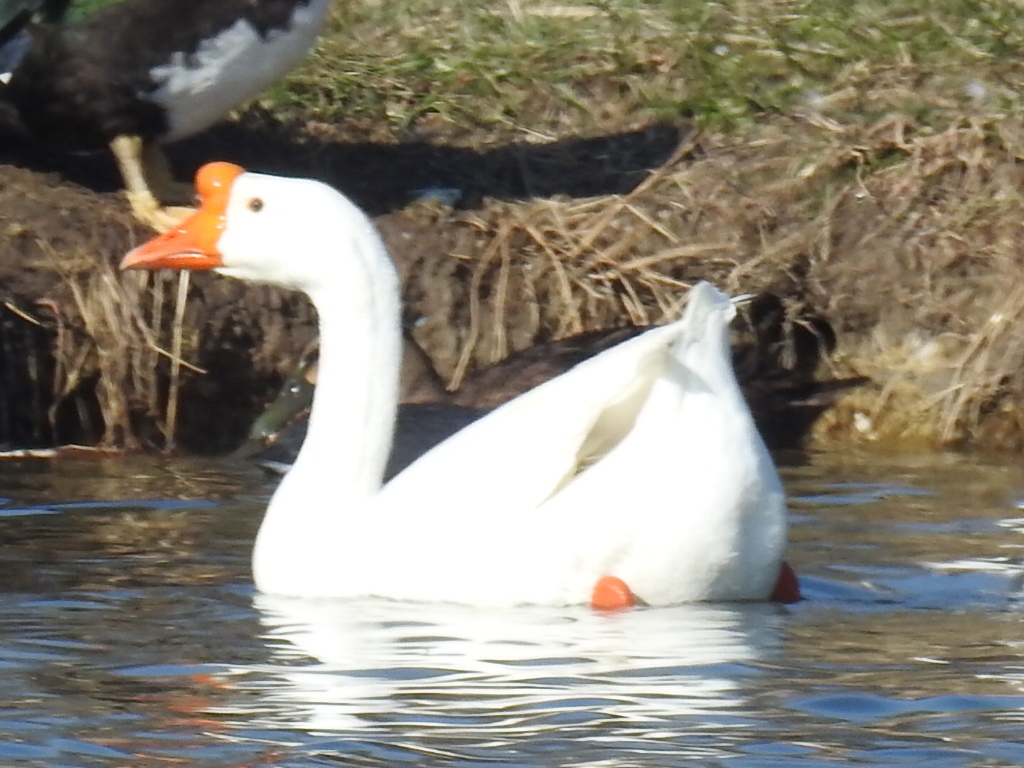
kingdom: Animalia
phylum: Chordata
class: Aves
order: Anseriformes
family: Anatidae
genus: Anser
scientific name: Anser cygnoides
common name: Swan goose
